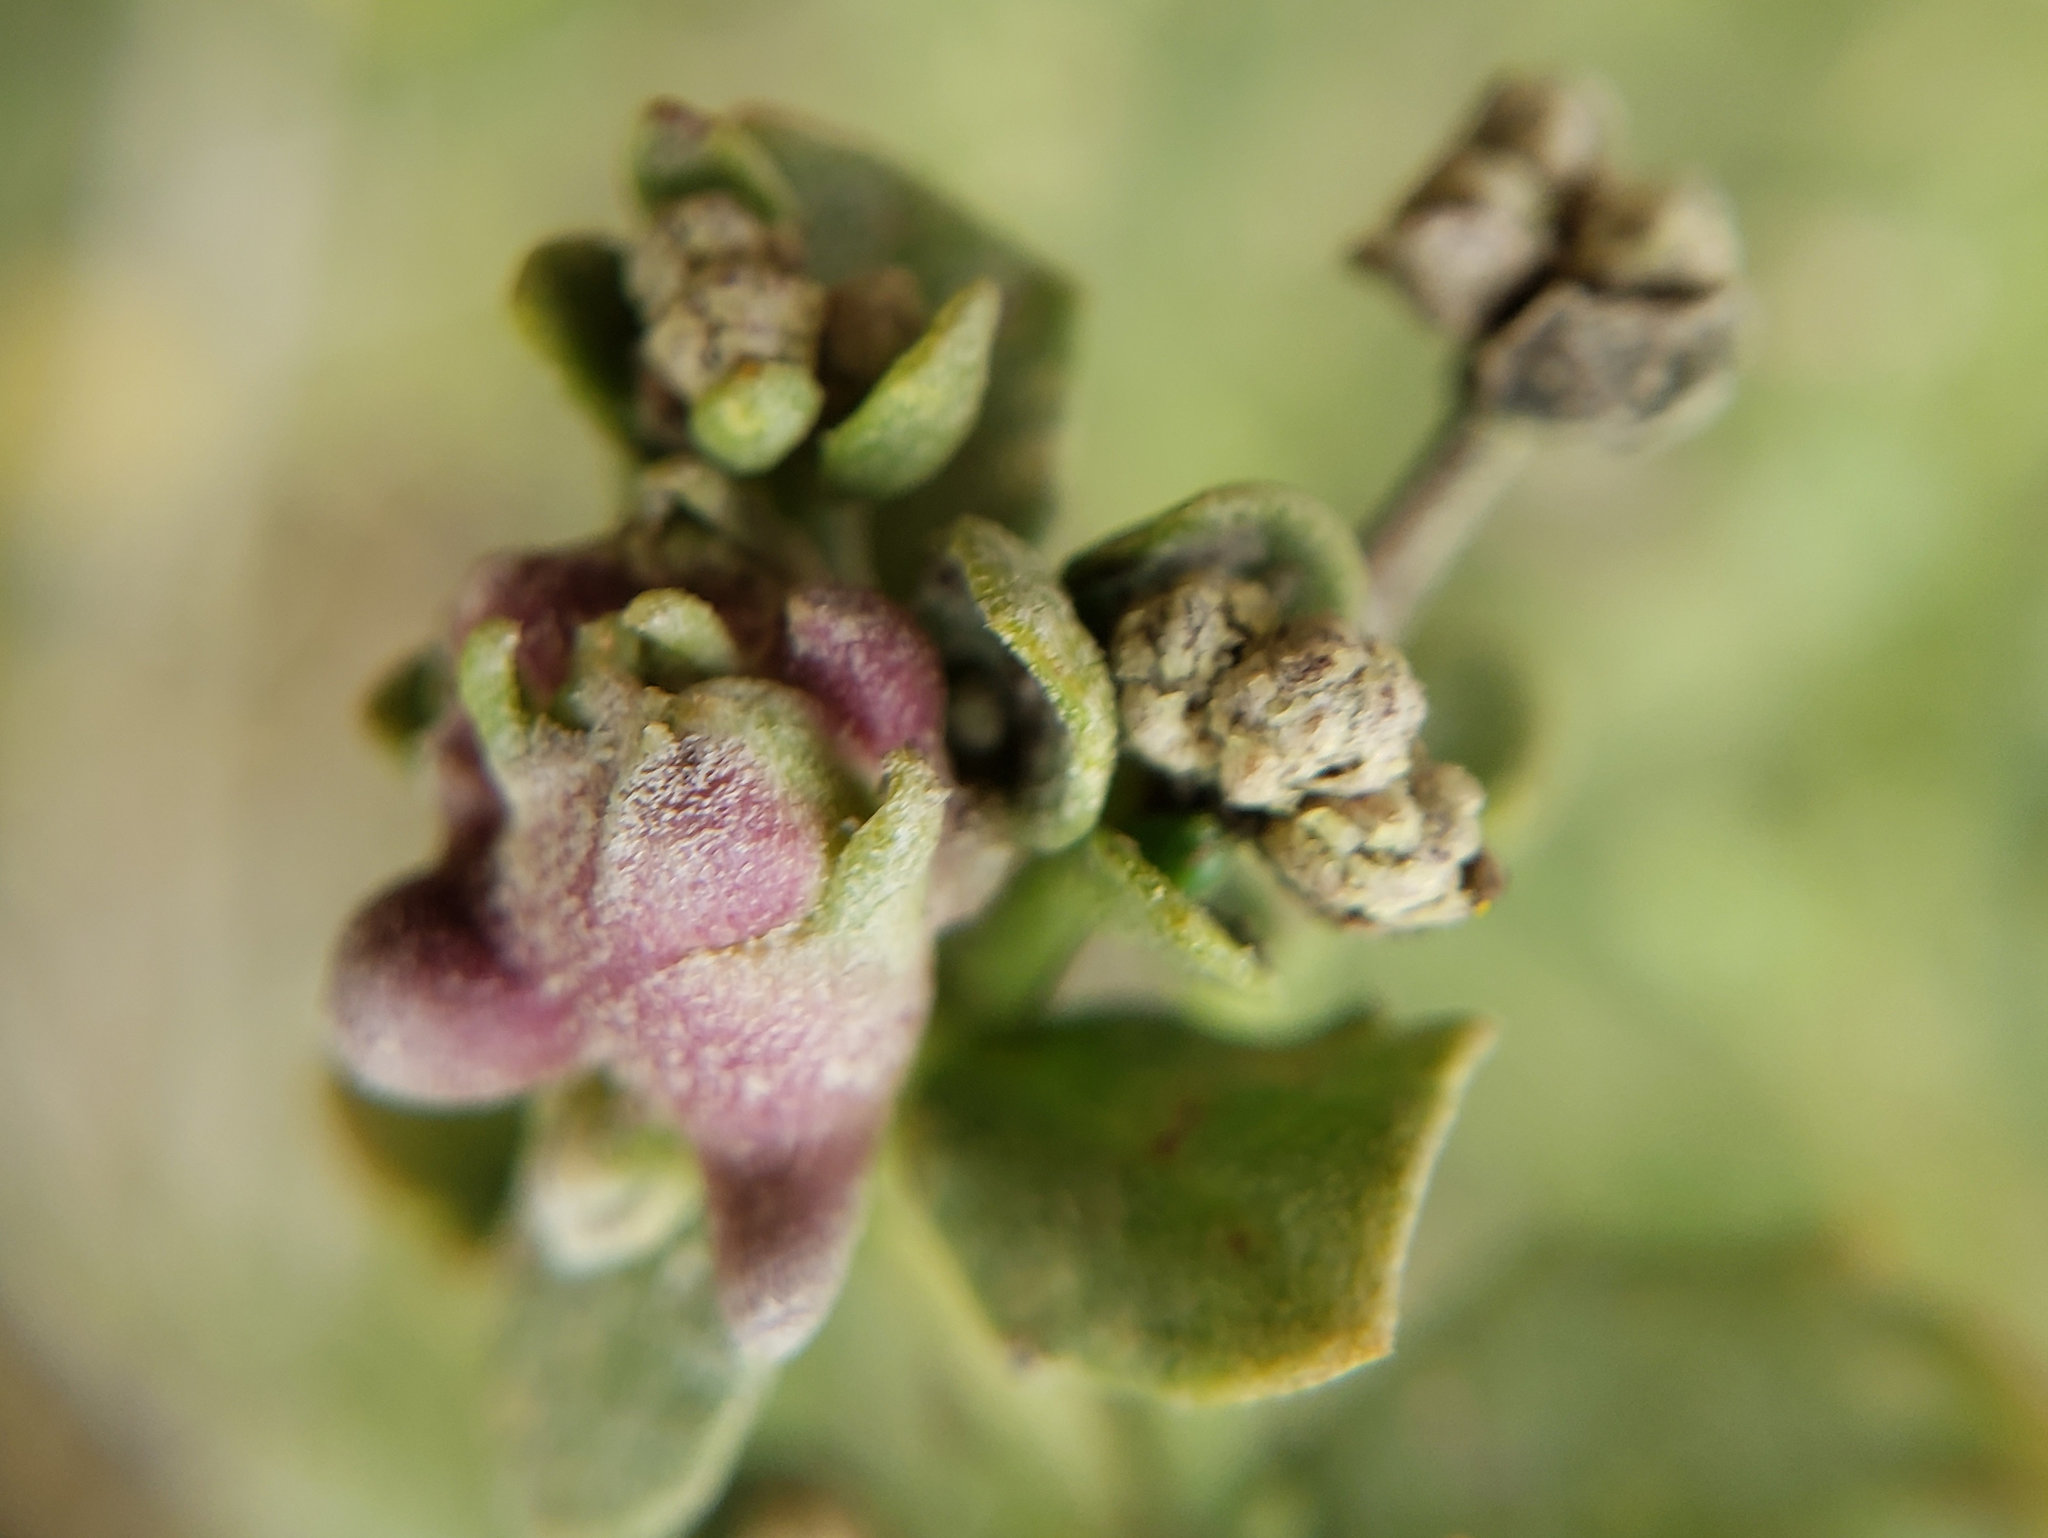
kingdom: Animalia
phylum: Arthropoda
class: Insecta
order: Diptera
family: Cecidomyiidae
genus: Rhopalomyia
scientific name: Rhopalomyia californica
